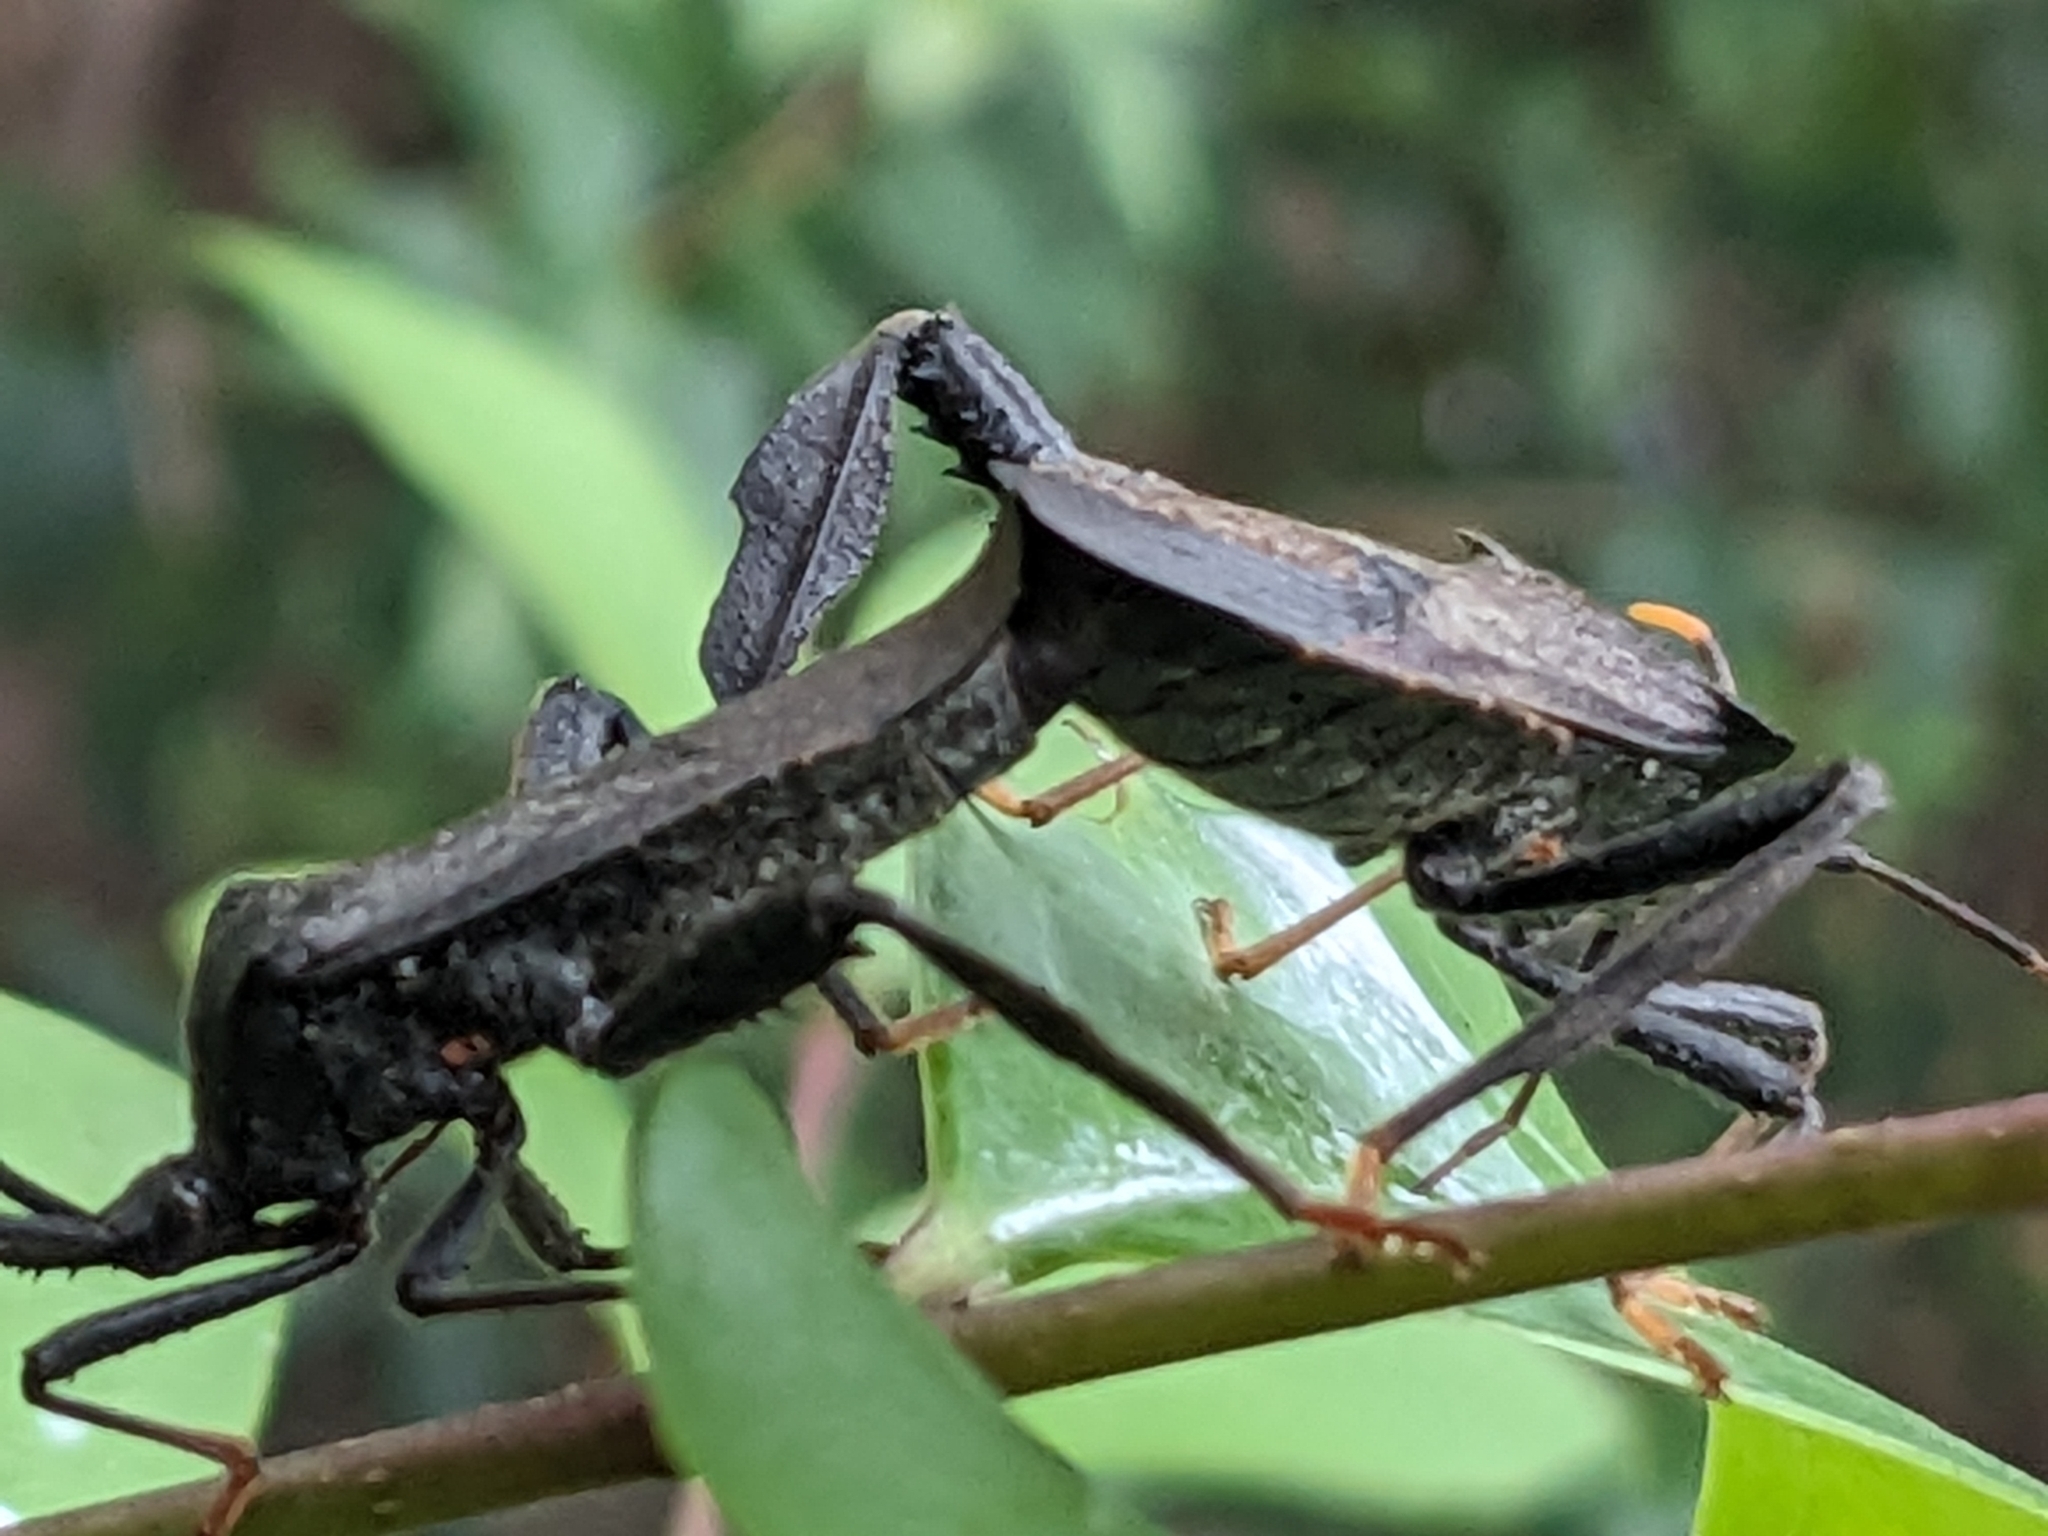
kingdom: Animalia
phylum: Arthropoda
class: Insecta
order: Hemiptera
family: Coreidae
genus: Acanthocephala
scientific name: Acanthocephala terminalis
